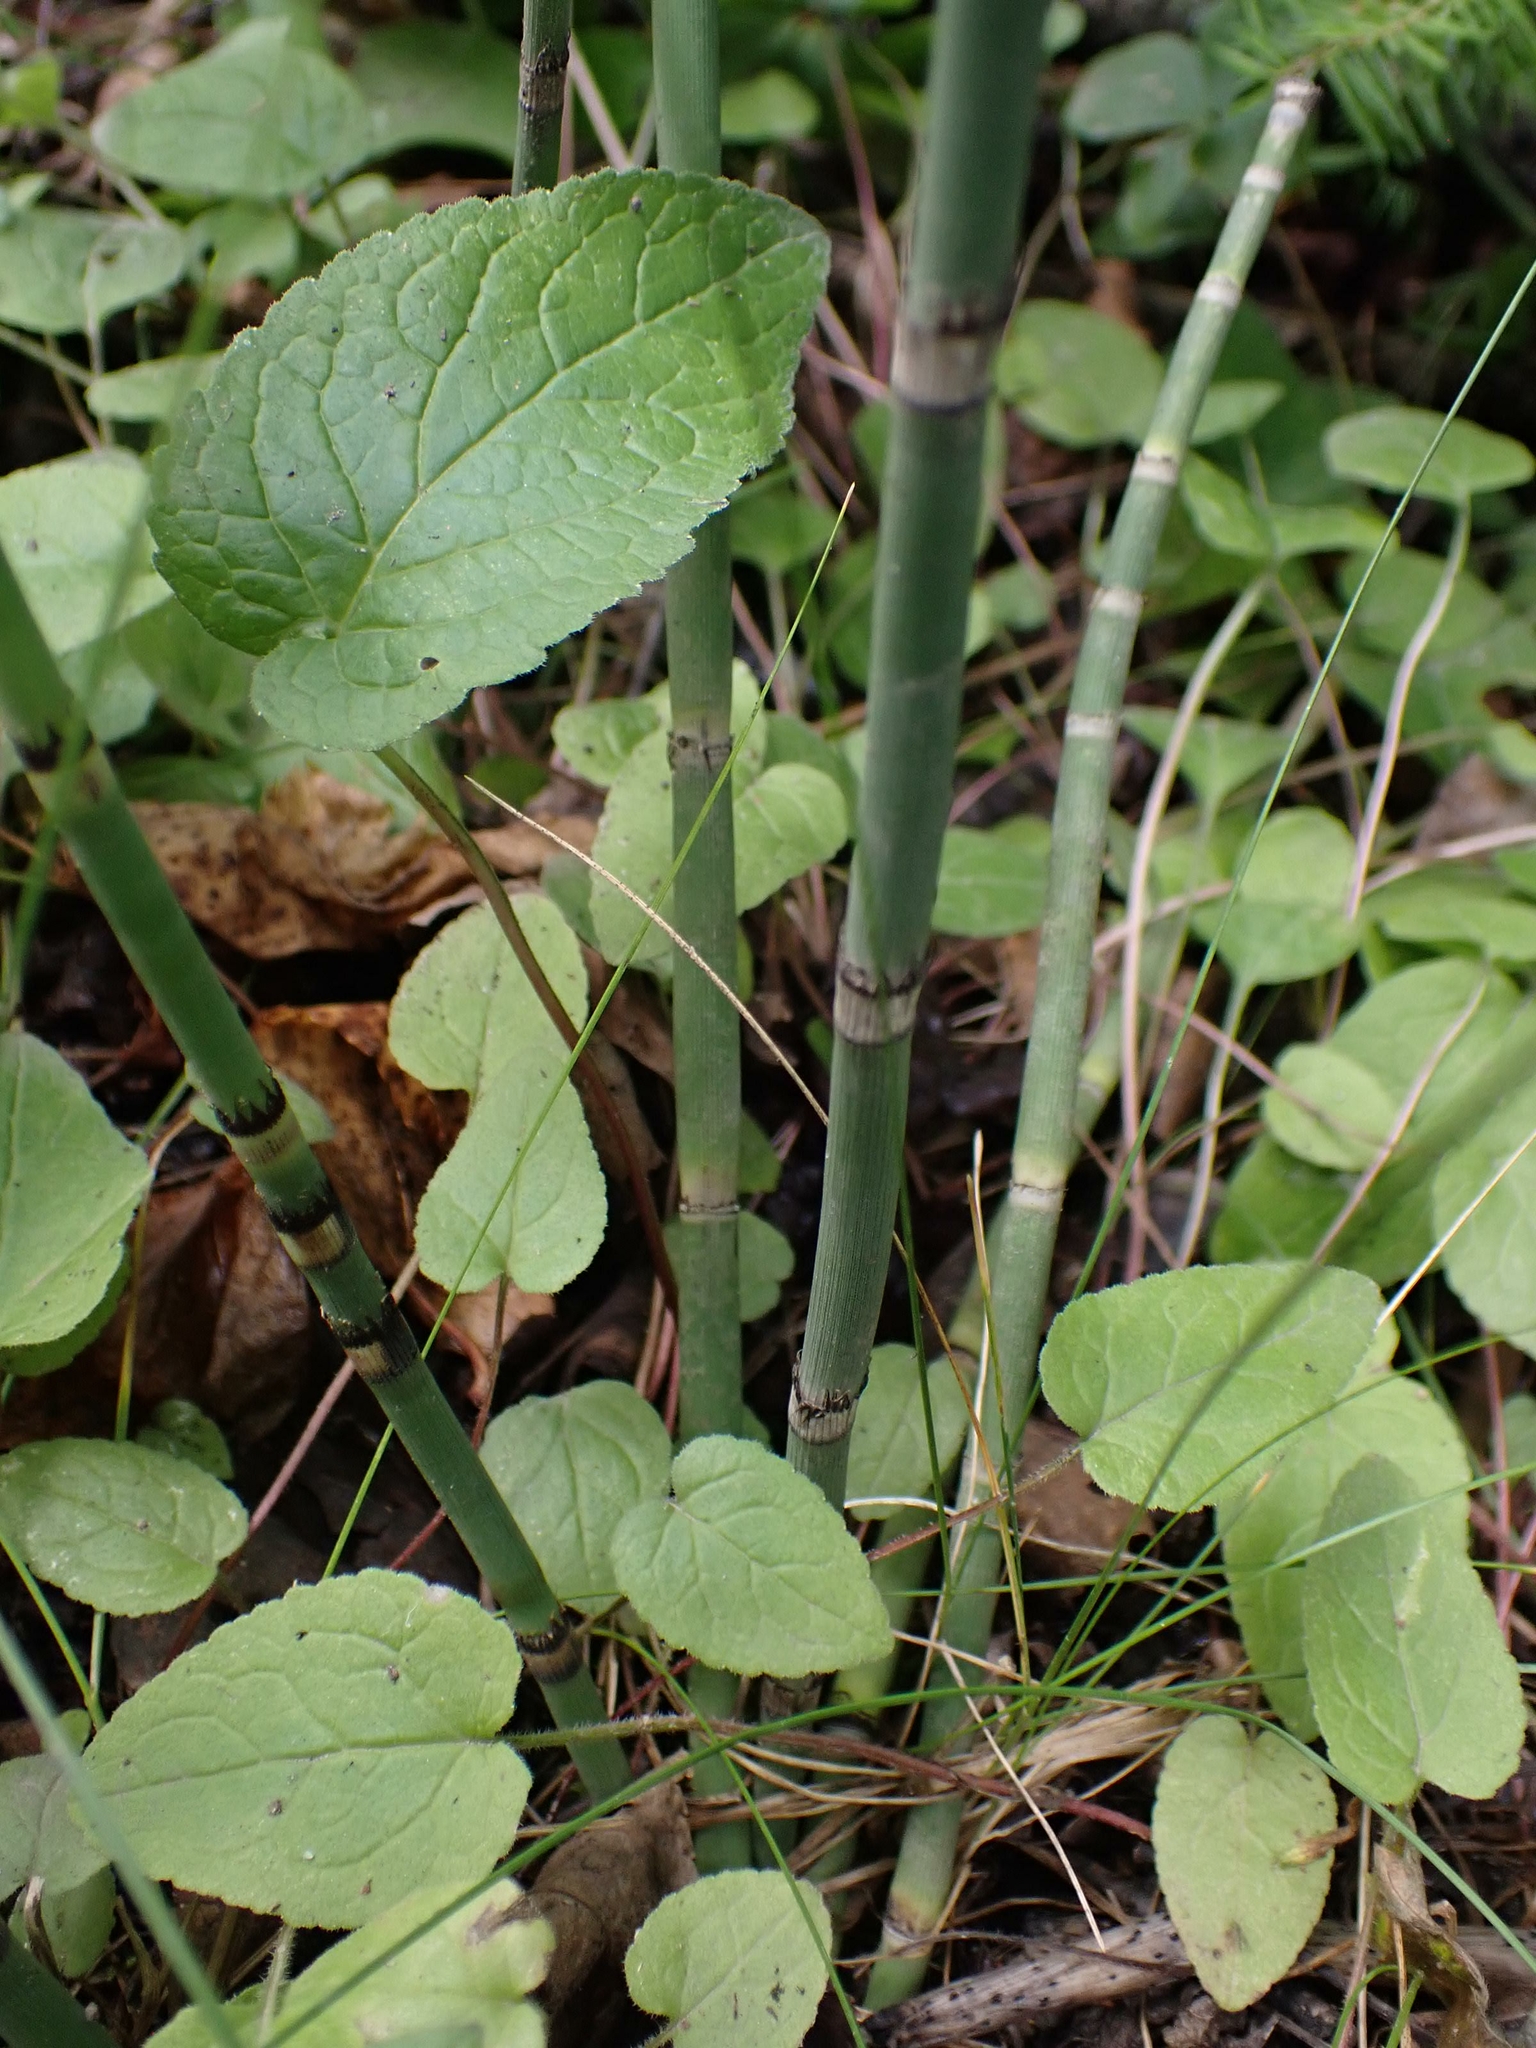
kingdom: Plantae
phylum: Tracheophyta
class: Polypodiopsida
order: Equisetales
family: Equisetaceae
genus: Equisetum
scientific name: Equisetum praealtum
